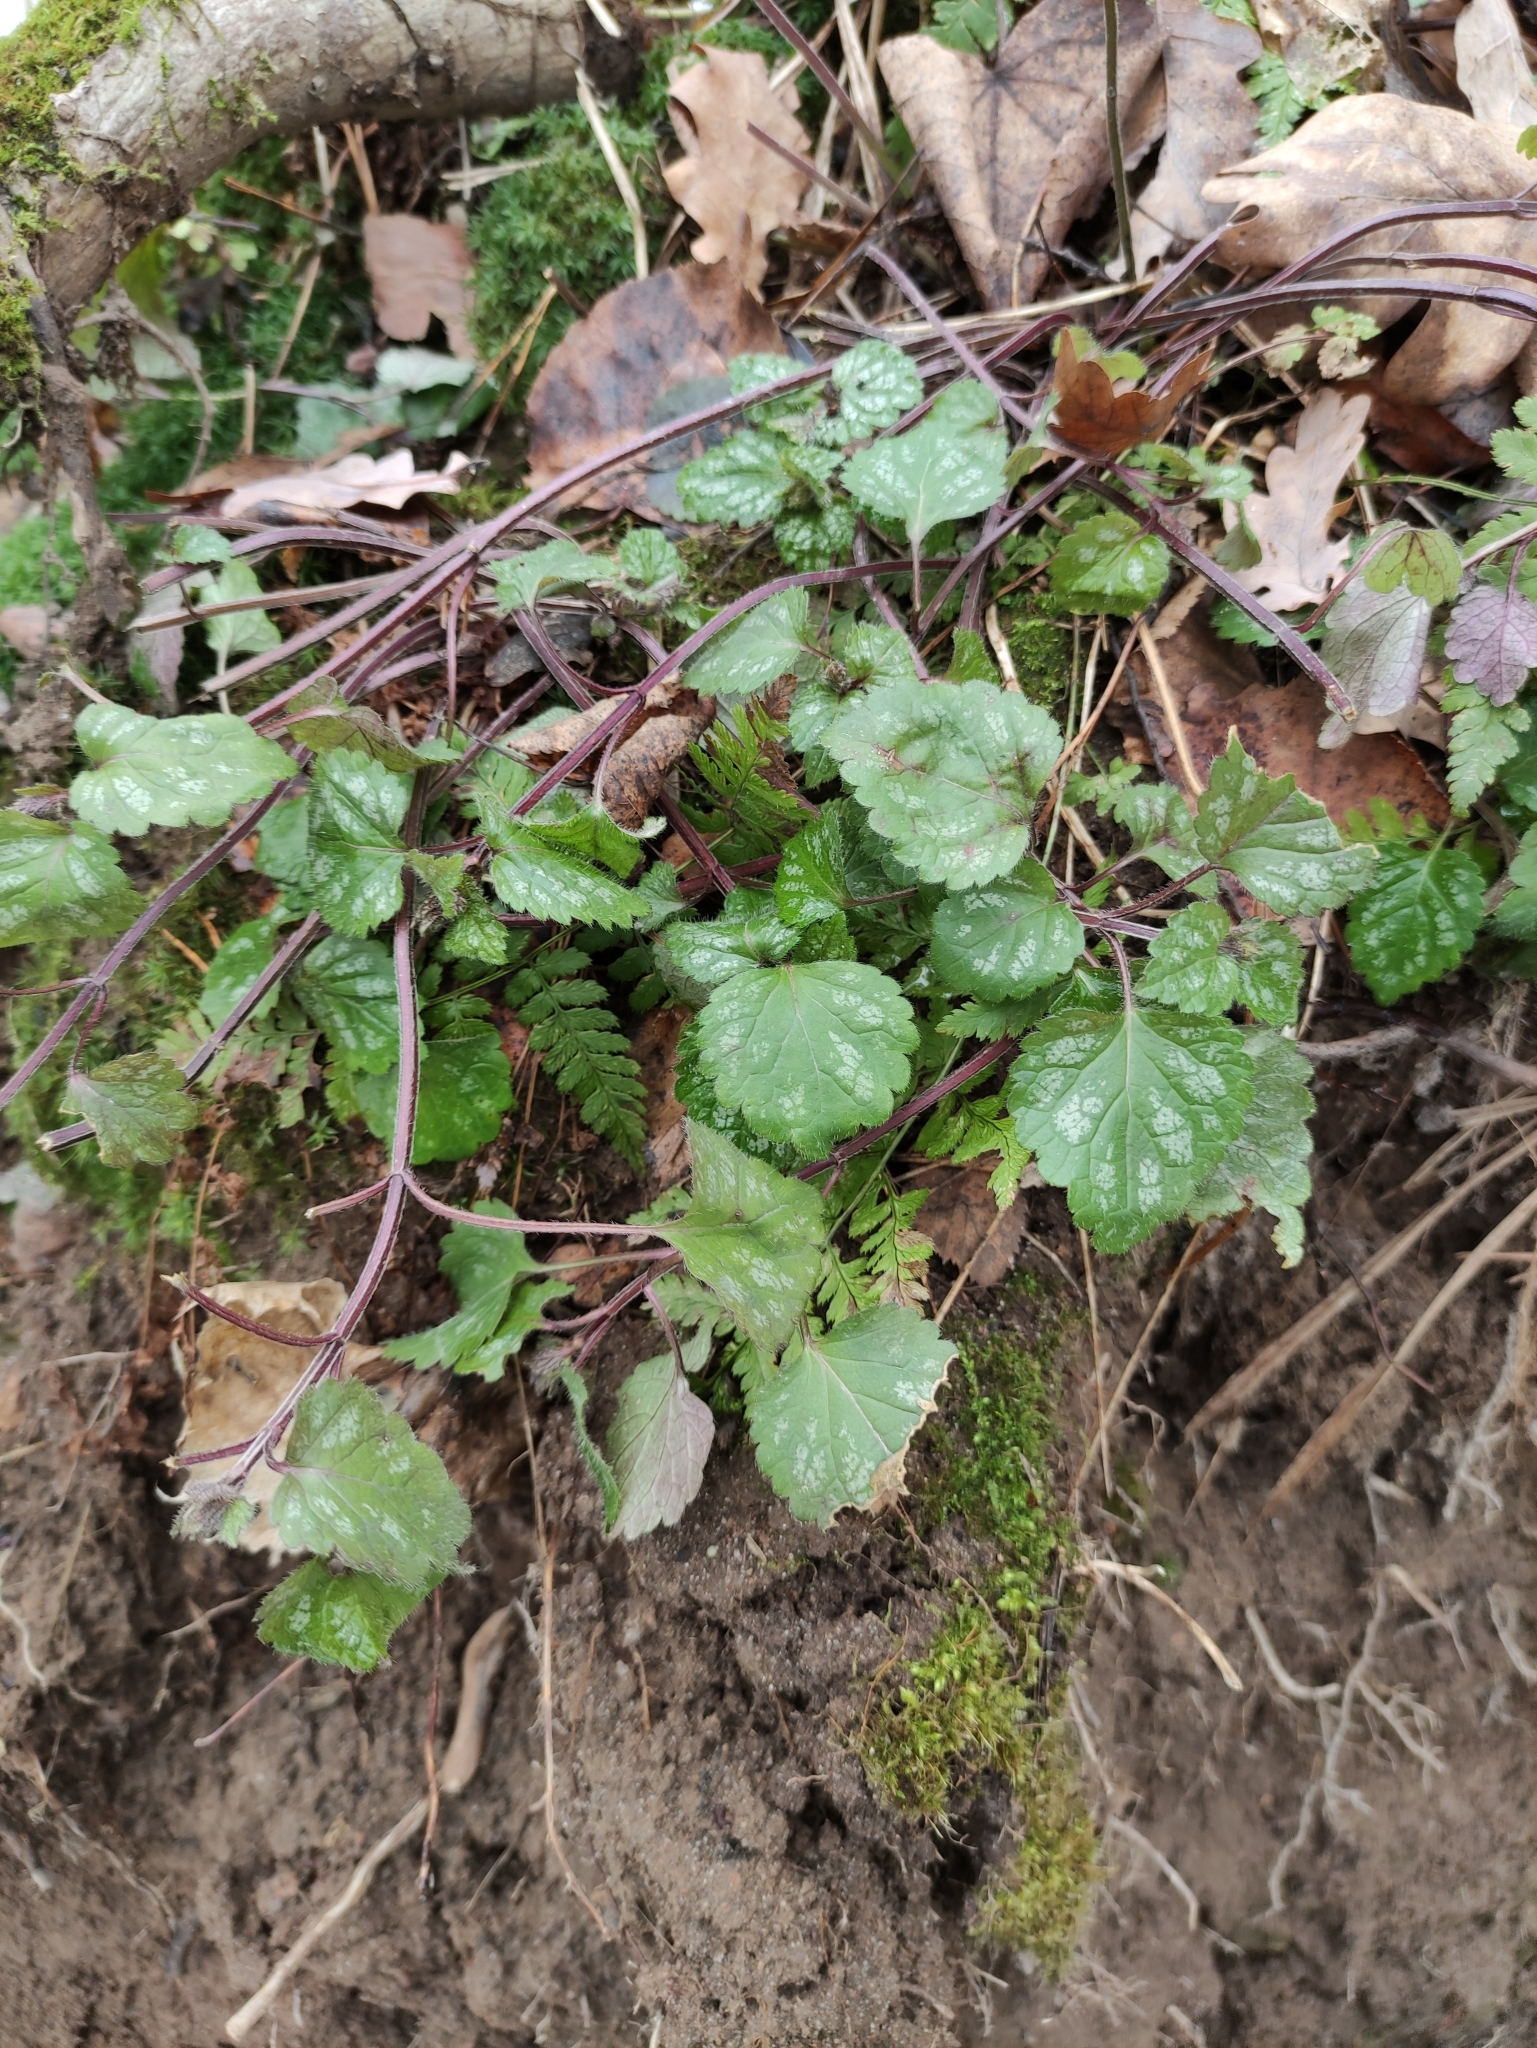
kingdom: Plantae
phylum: Tracheophyta
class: Magnoliopsida
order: Lamiales
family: Lamiaceae
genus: Lamium
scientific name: Lamium galeobdolon
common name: Yellow archangel
